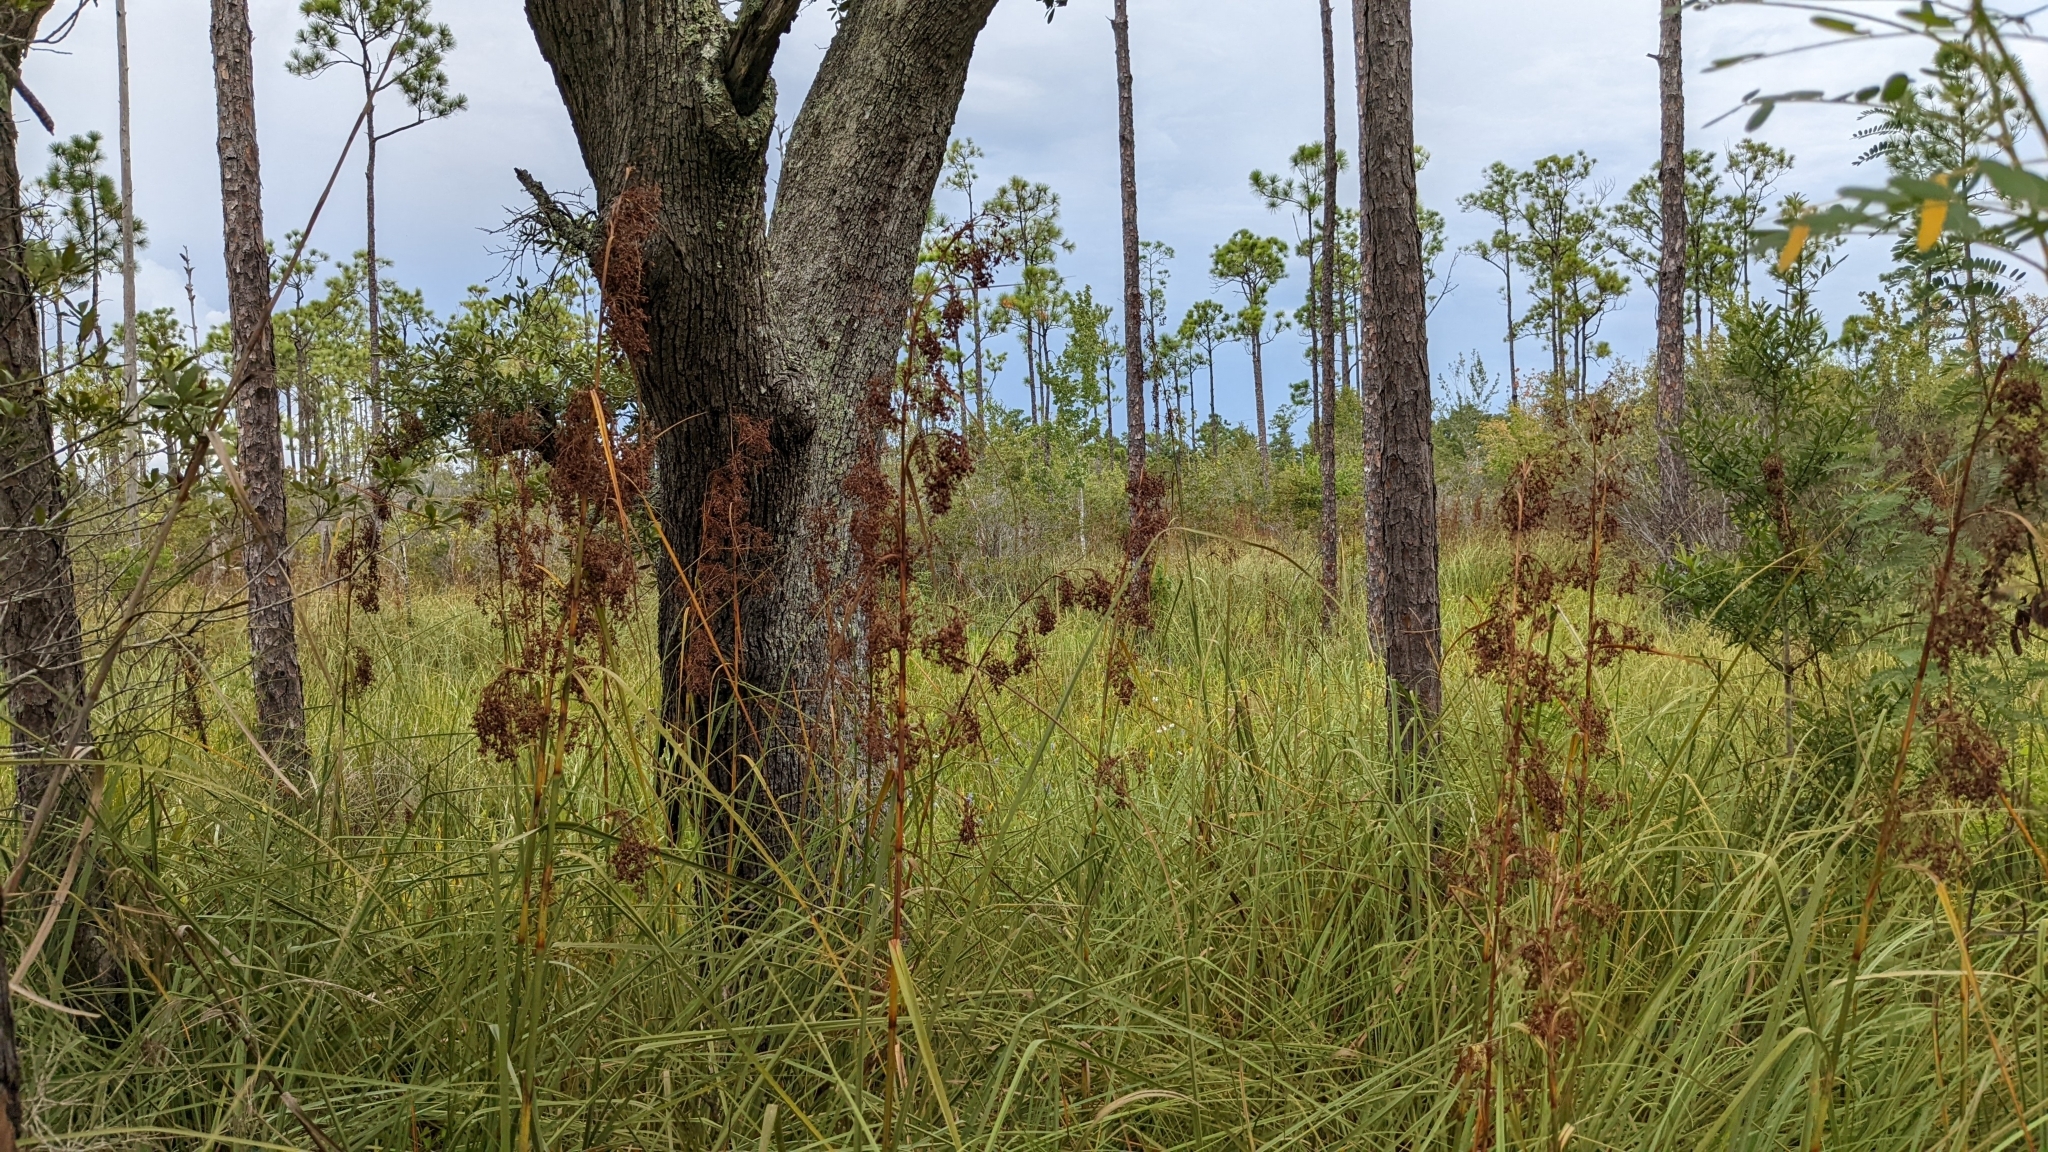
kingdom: Plantae
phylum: Tracheophyta
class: Liliopsida
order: Poales
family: Cyperaceae
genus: Cladium
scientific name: Cladium mariscus
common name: Great fen-sedge
